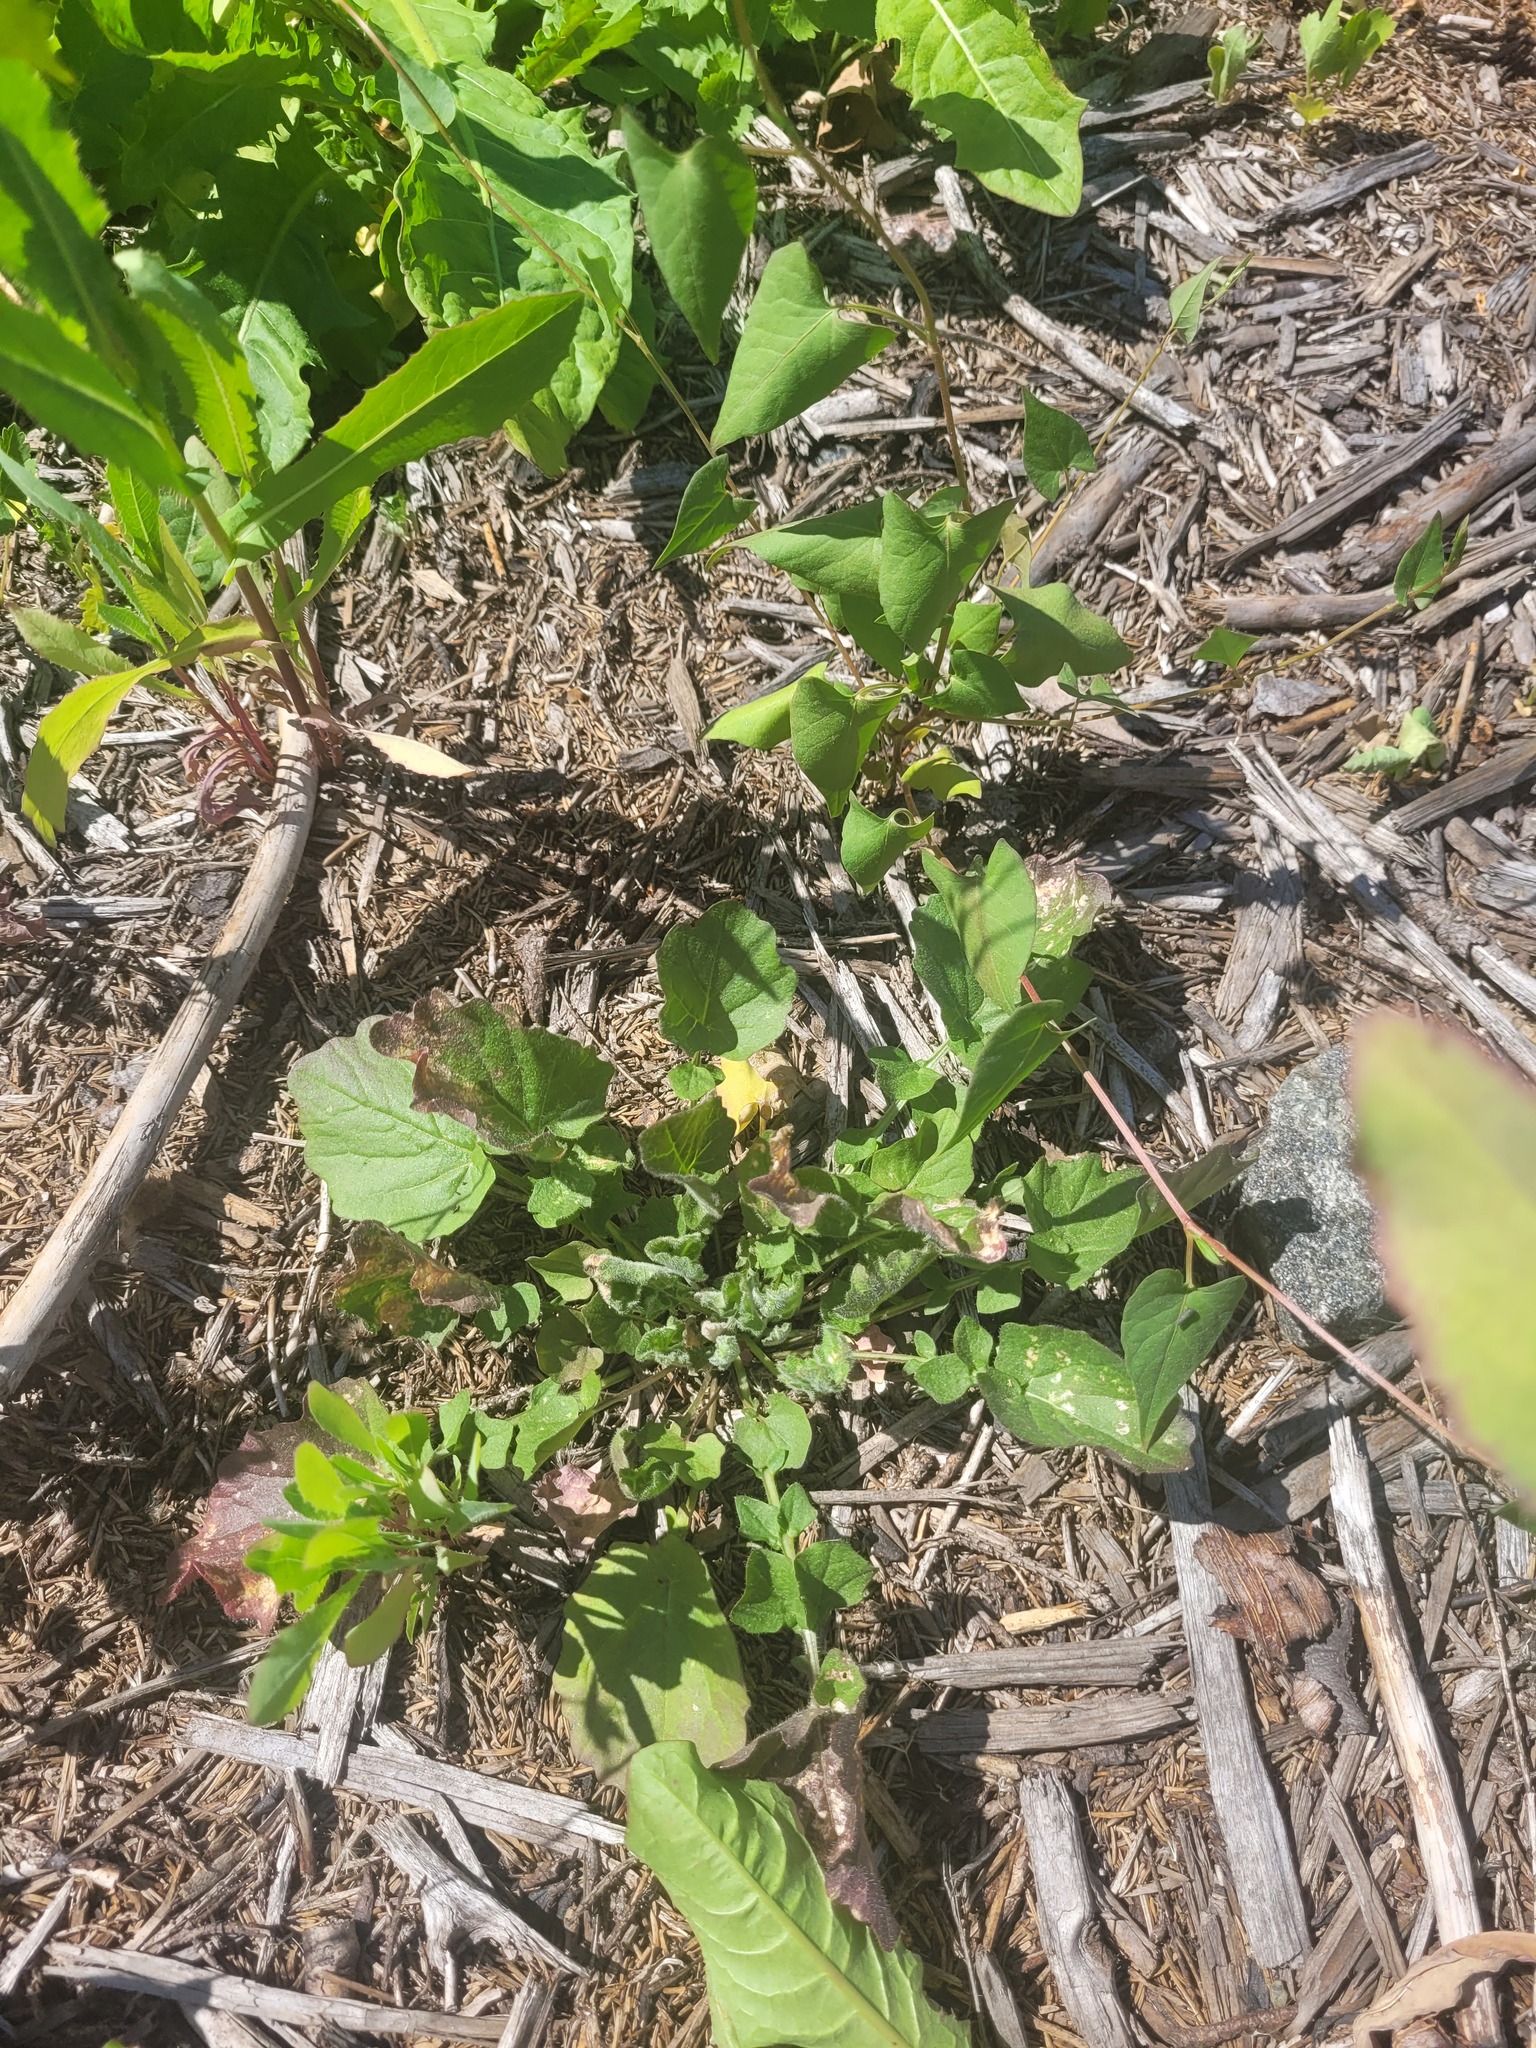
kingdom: Plantae
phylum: Tracheophyta
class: Magnoliopsida
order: Brassicales
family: Brassicaceae
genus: Barbarea
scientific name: Barbarea vulgaris
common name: Cressy-greens
